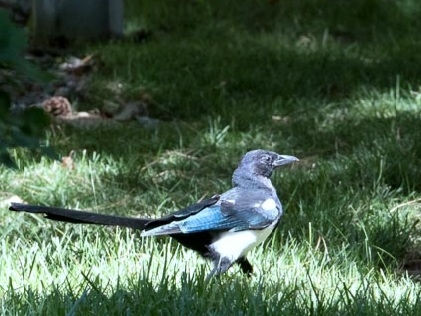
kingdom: Animalia
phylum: Chordata
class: Aves
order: Passeriformes
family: Corvidae
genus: Pica
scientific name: Pica hudsonia
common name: Black-billed magpie
